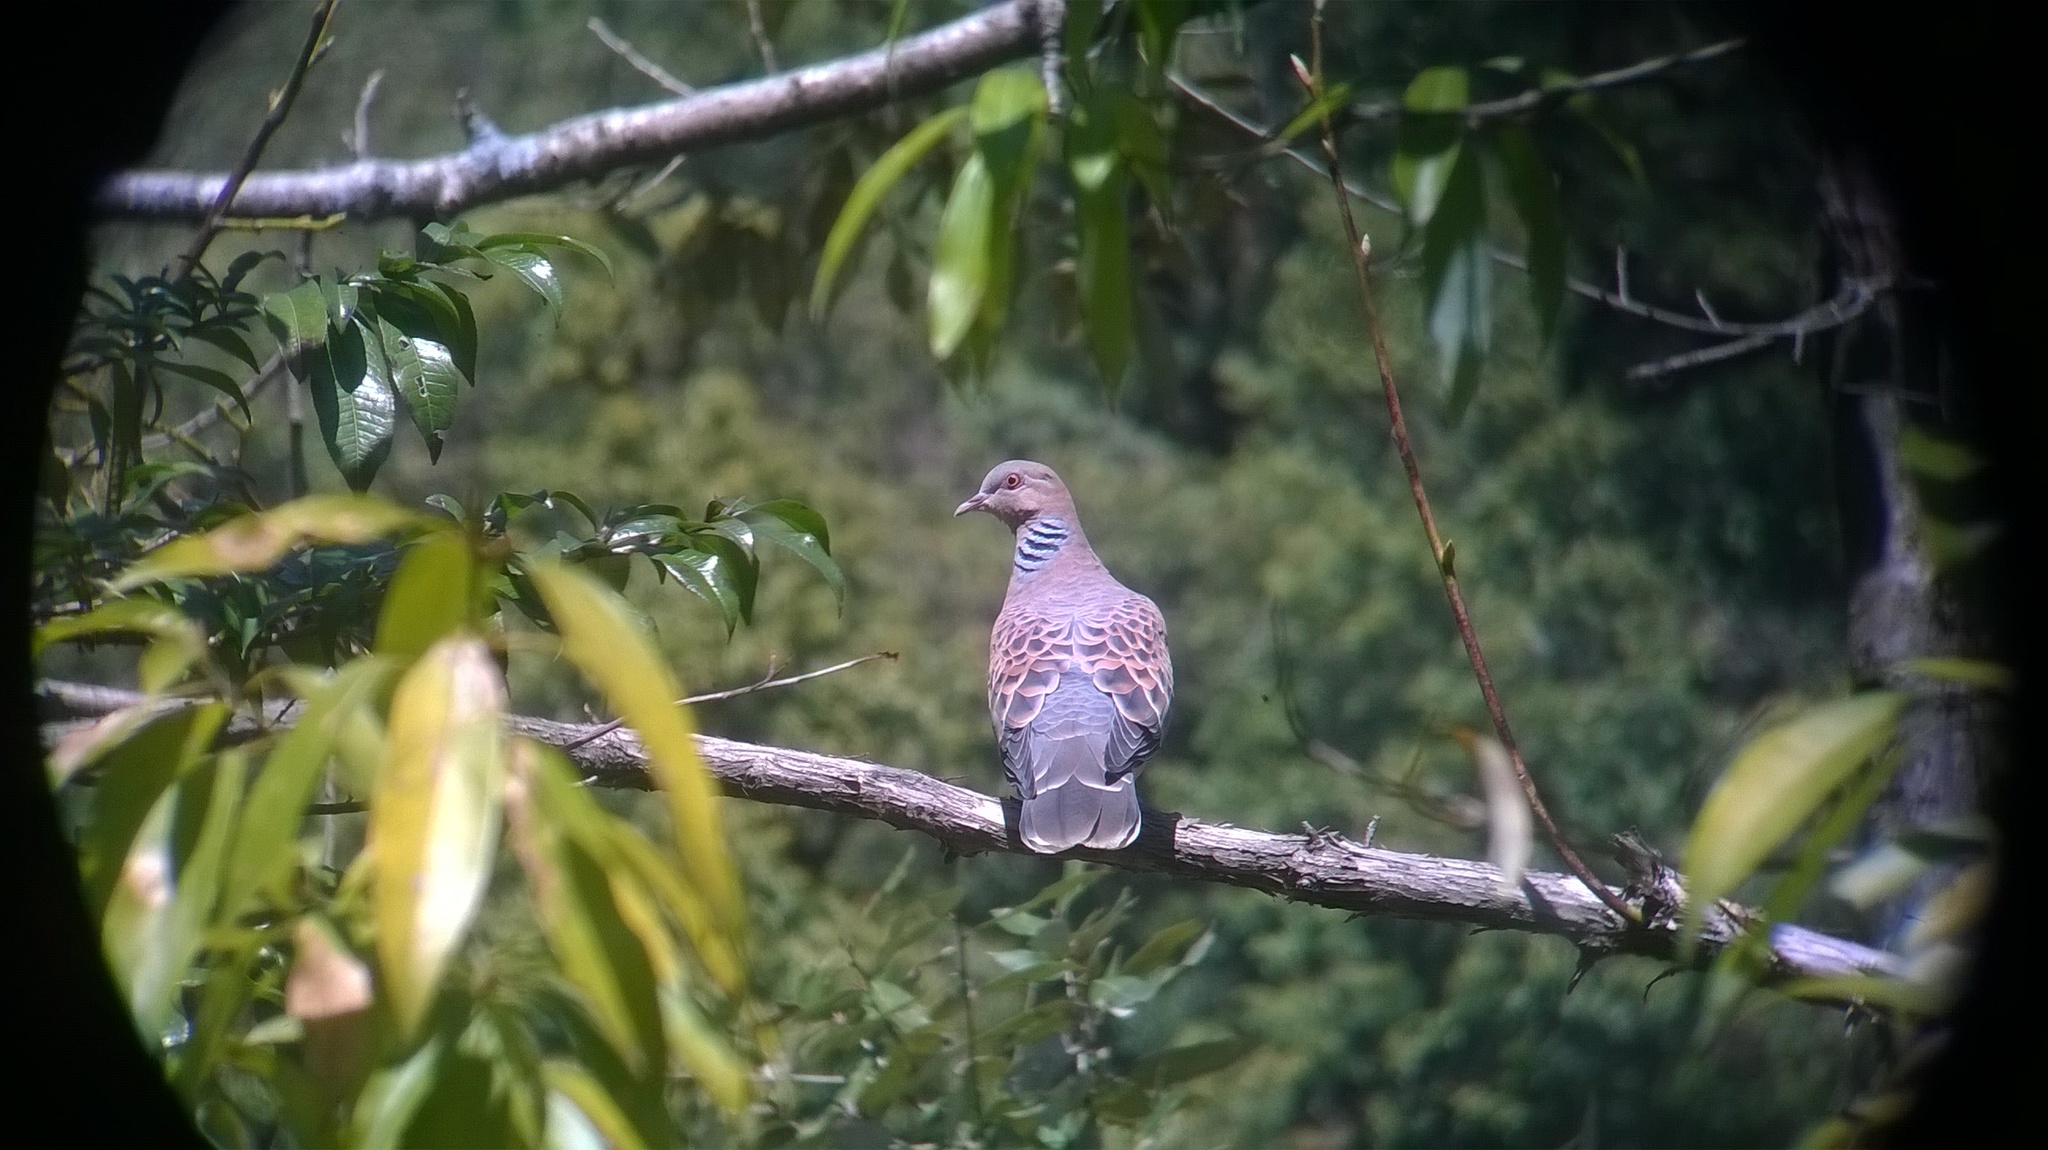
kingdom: Animalia
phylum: Chordata
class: Aves
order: Columbiformes
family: Columbidae
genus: Streptopelia
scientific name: Streptopelia orientalis
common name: Oriental turtle dove
